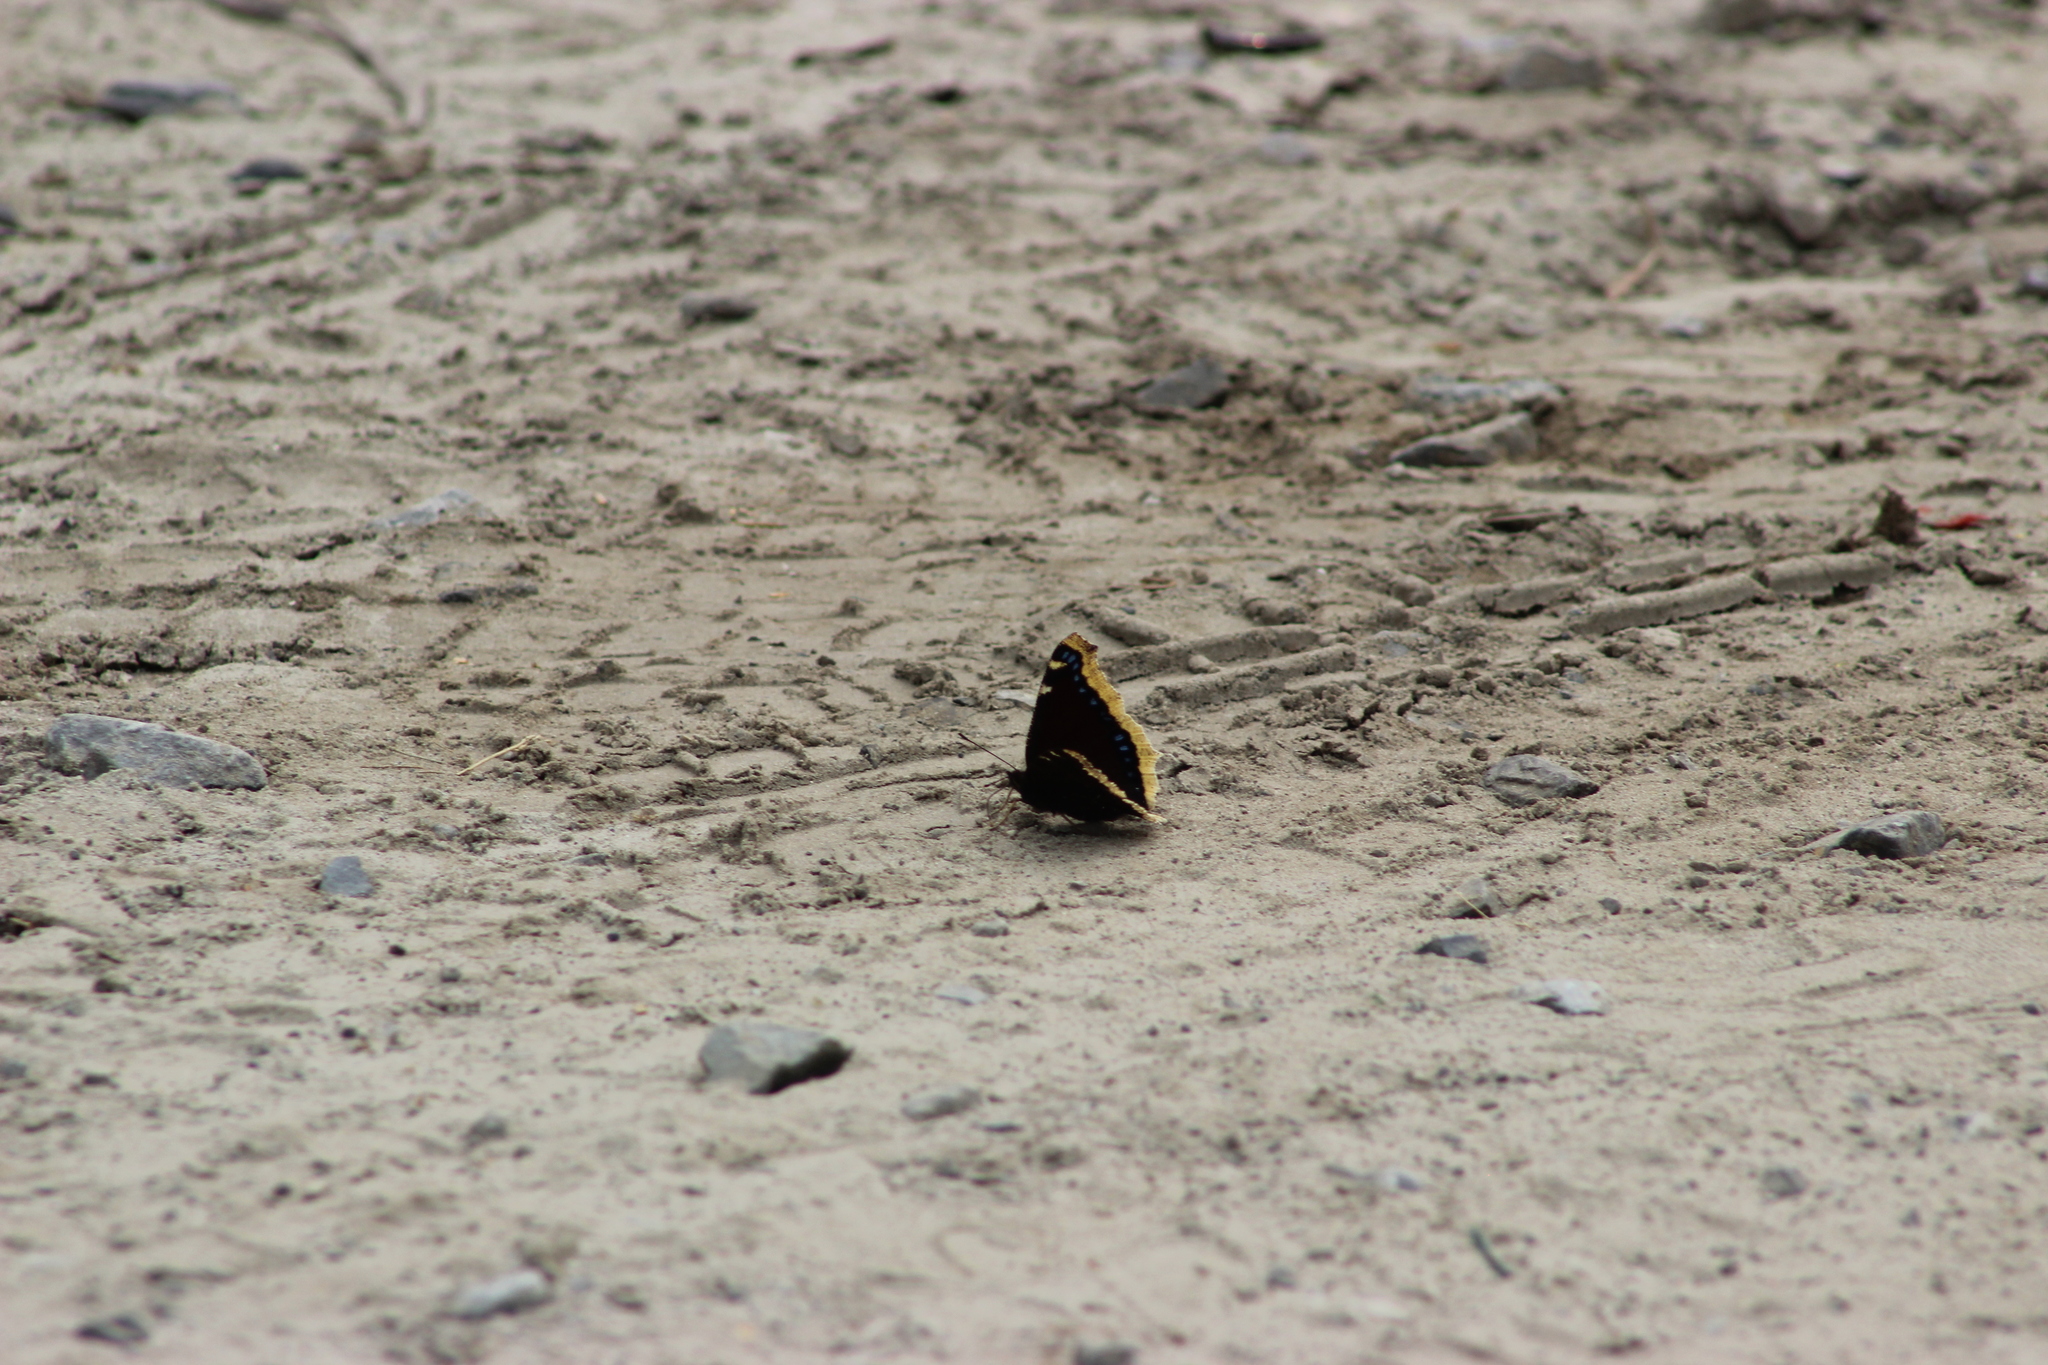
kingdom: Animalia
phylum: Arthropoda
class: Insecta
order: Lepidoptera
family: Nymphalidae
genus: Nymphalis
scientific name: Nymphalis antiopa
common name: Camberwell beauty
